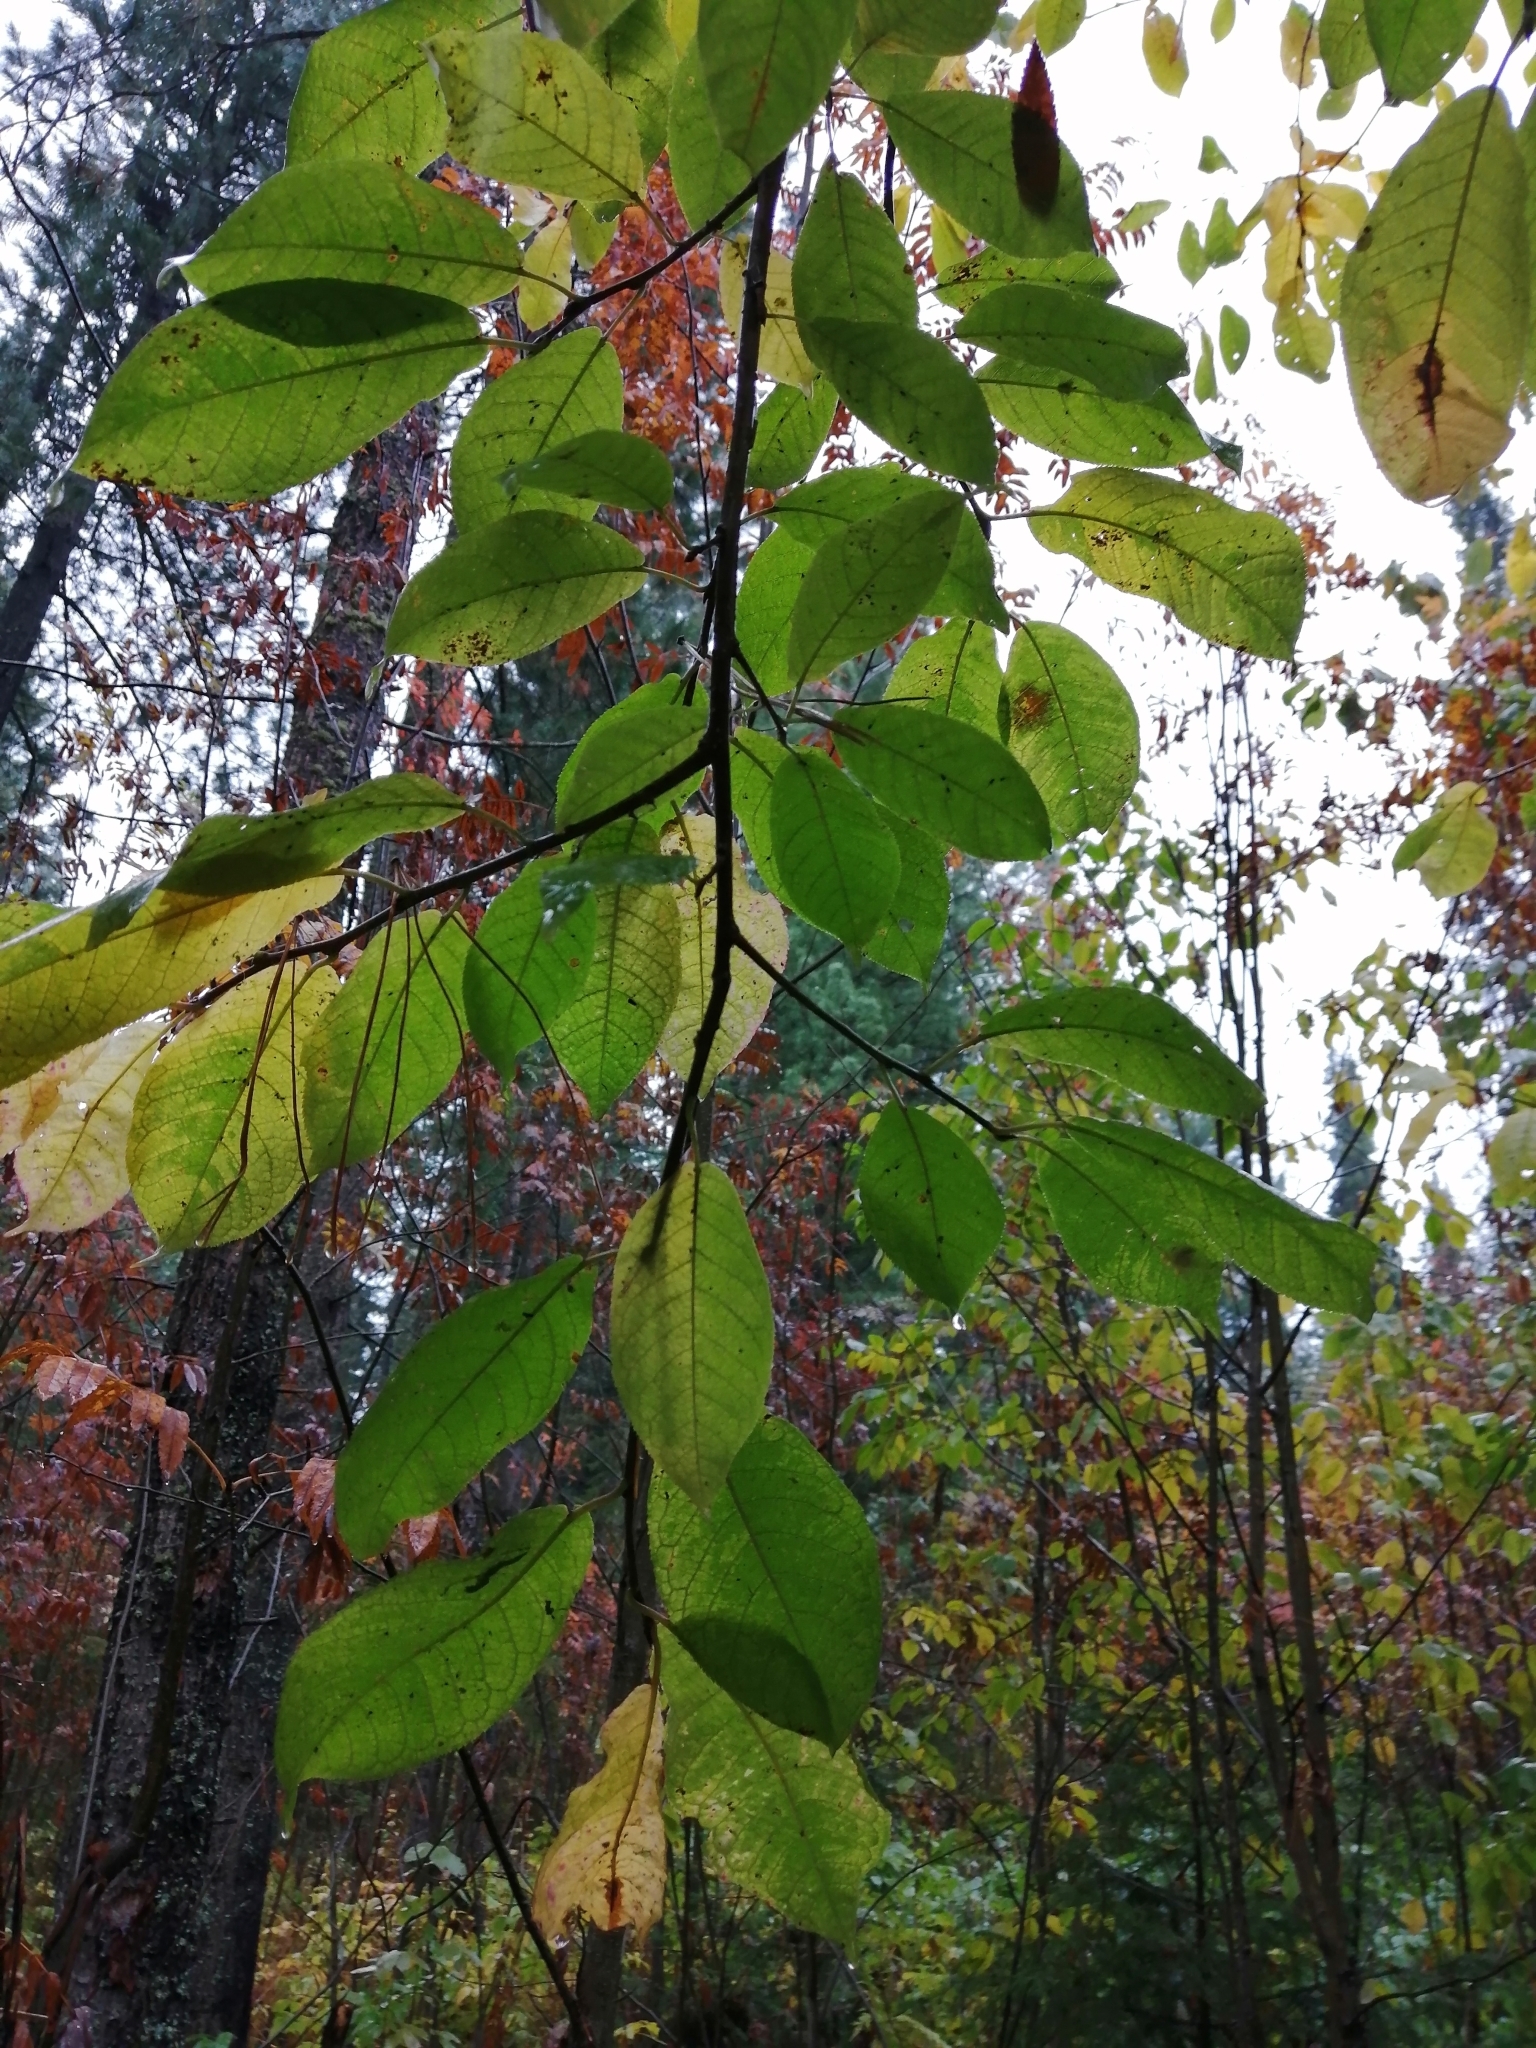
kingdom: Plantae
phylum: Tracheophyta
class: Magnoliopsida
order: Rosales
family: Rosaceae
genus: Prunus
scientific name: Prunus padus
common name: Bird cherry
